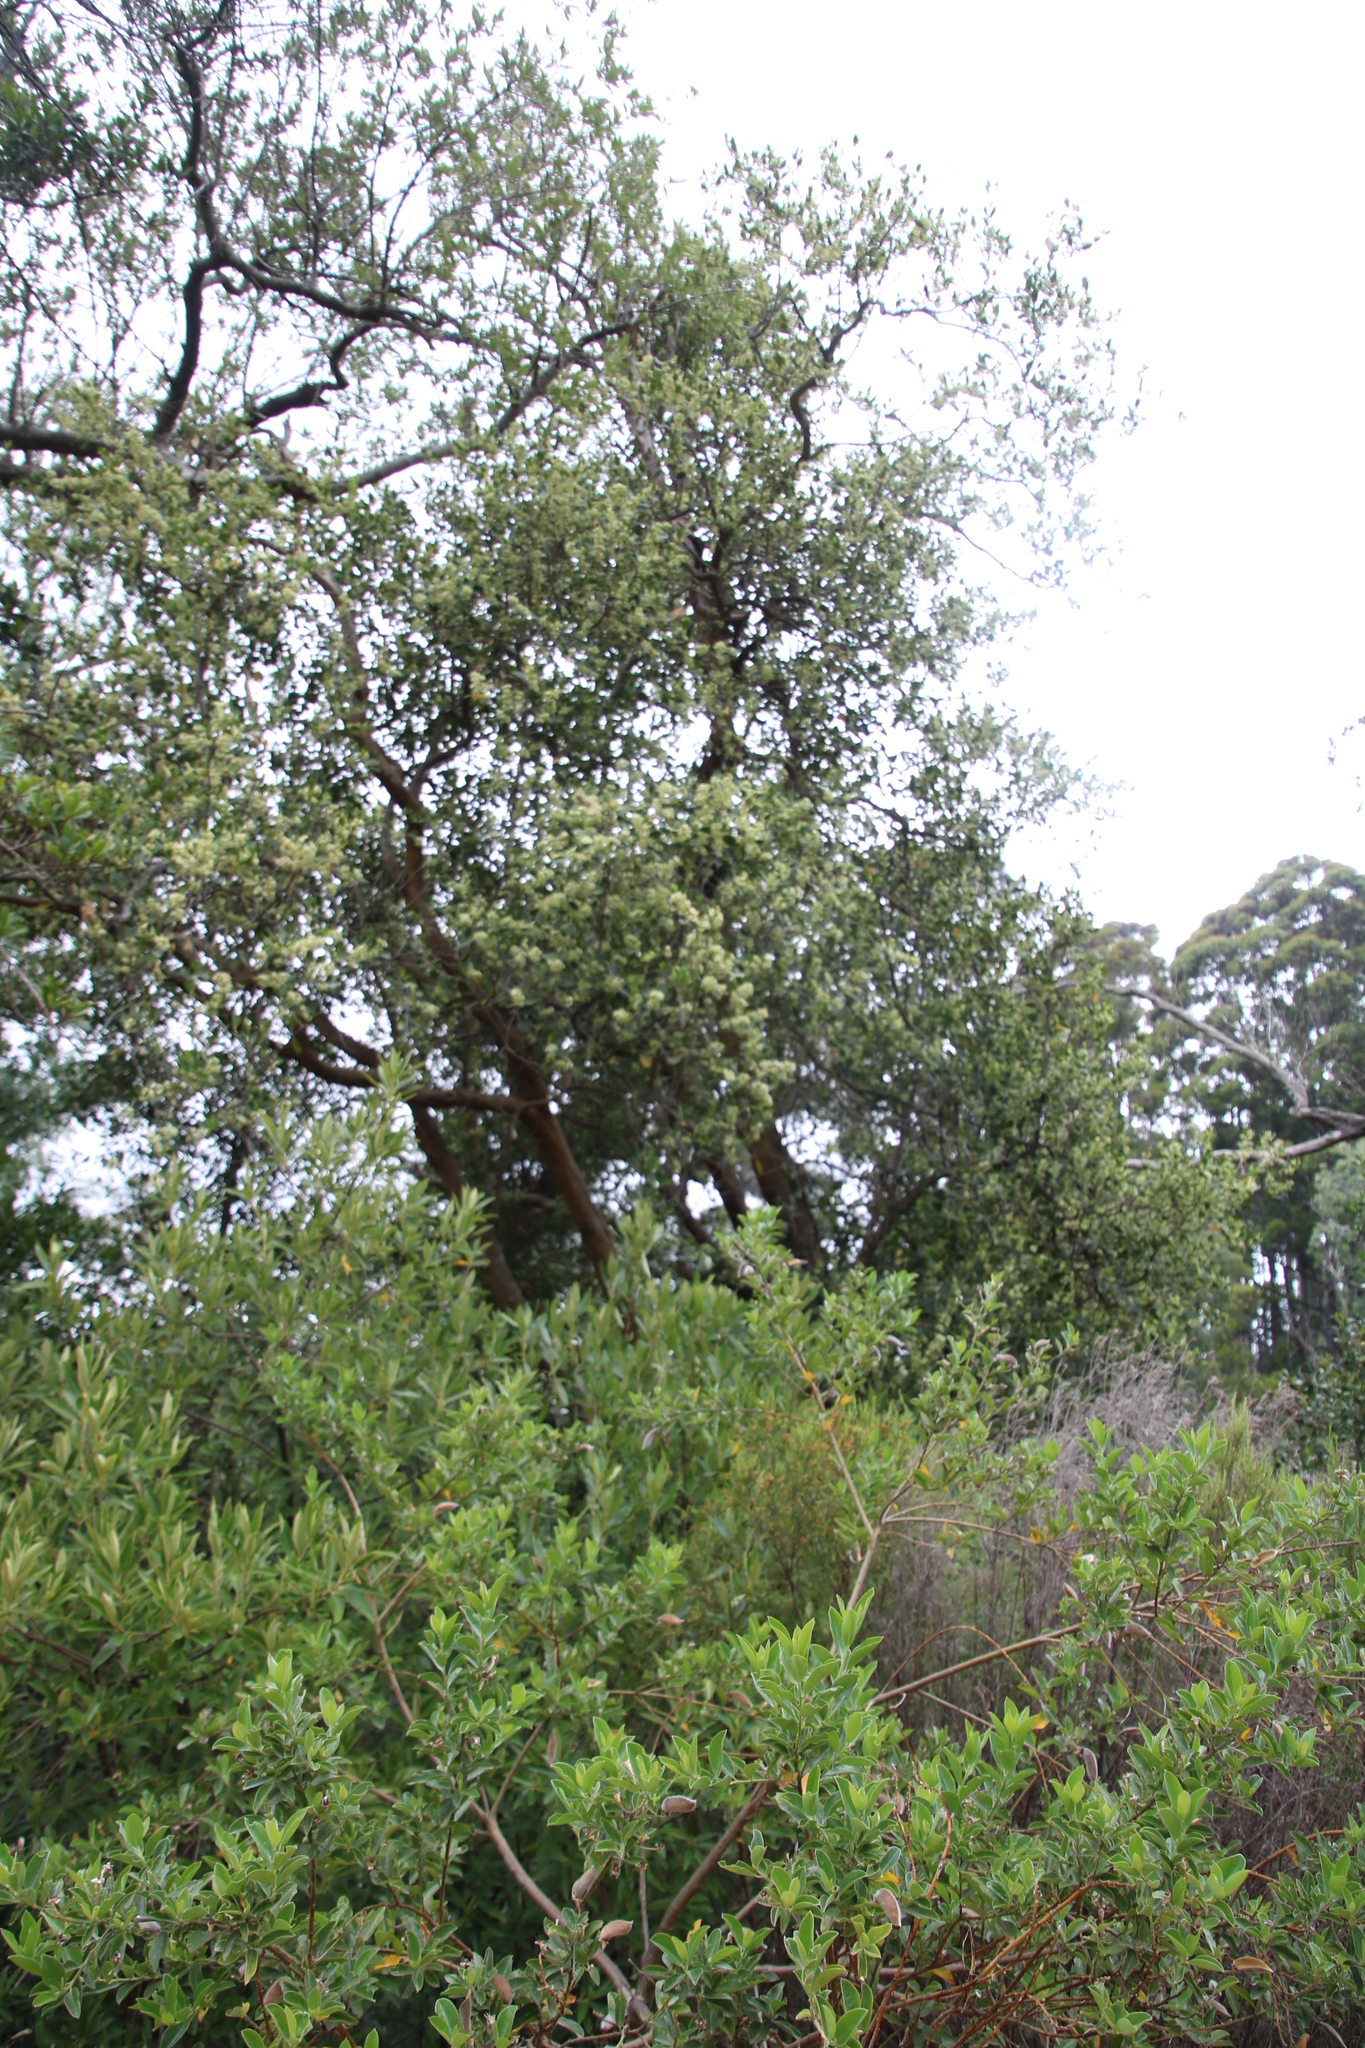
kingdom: Plantae
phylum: Tracheophyta
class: Magnoliopsida
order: Celastrales
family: Celastraceae
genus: Cassine
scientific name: Cassine peragua
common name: Cape saffron
